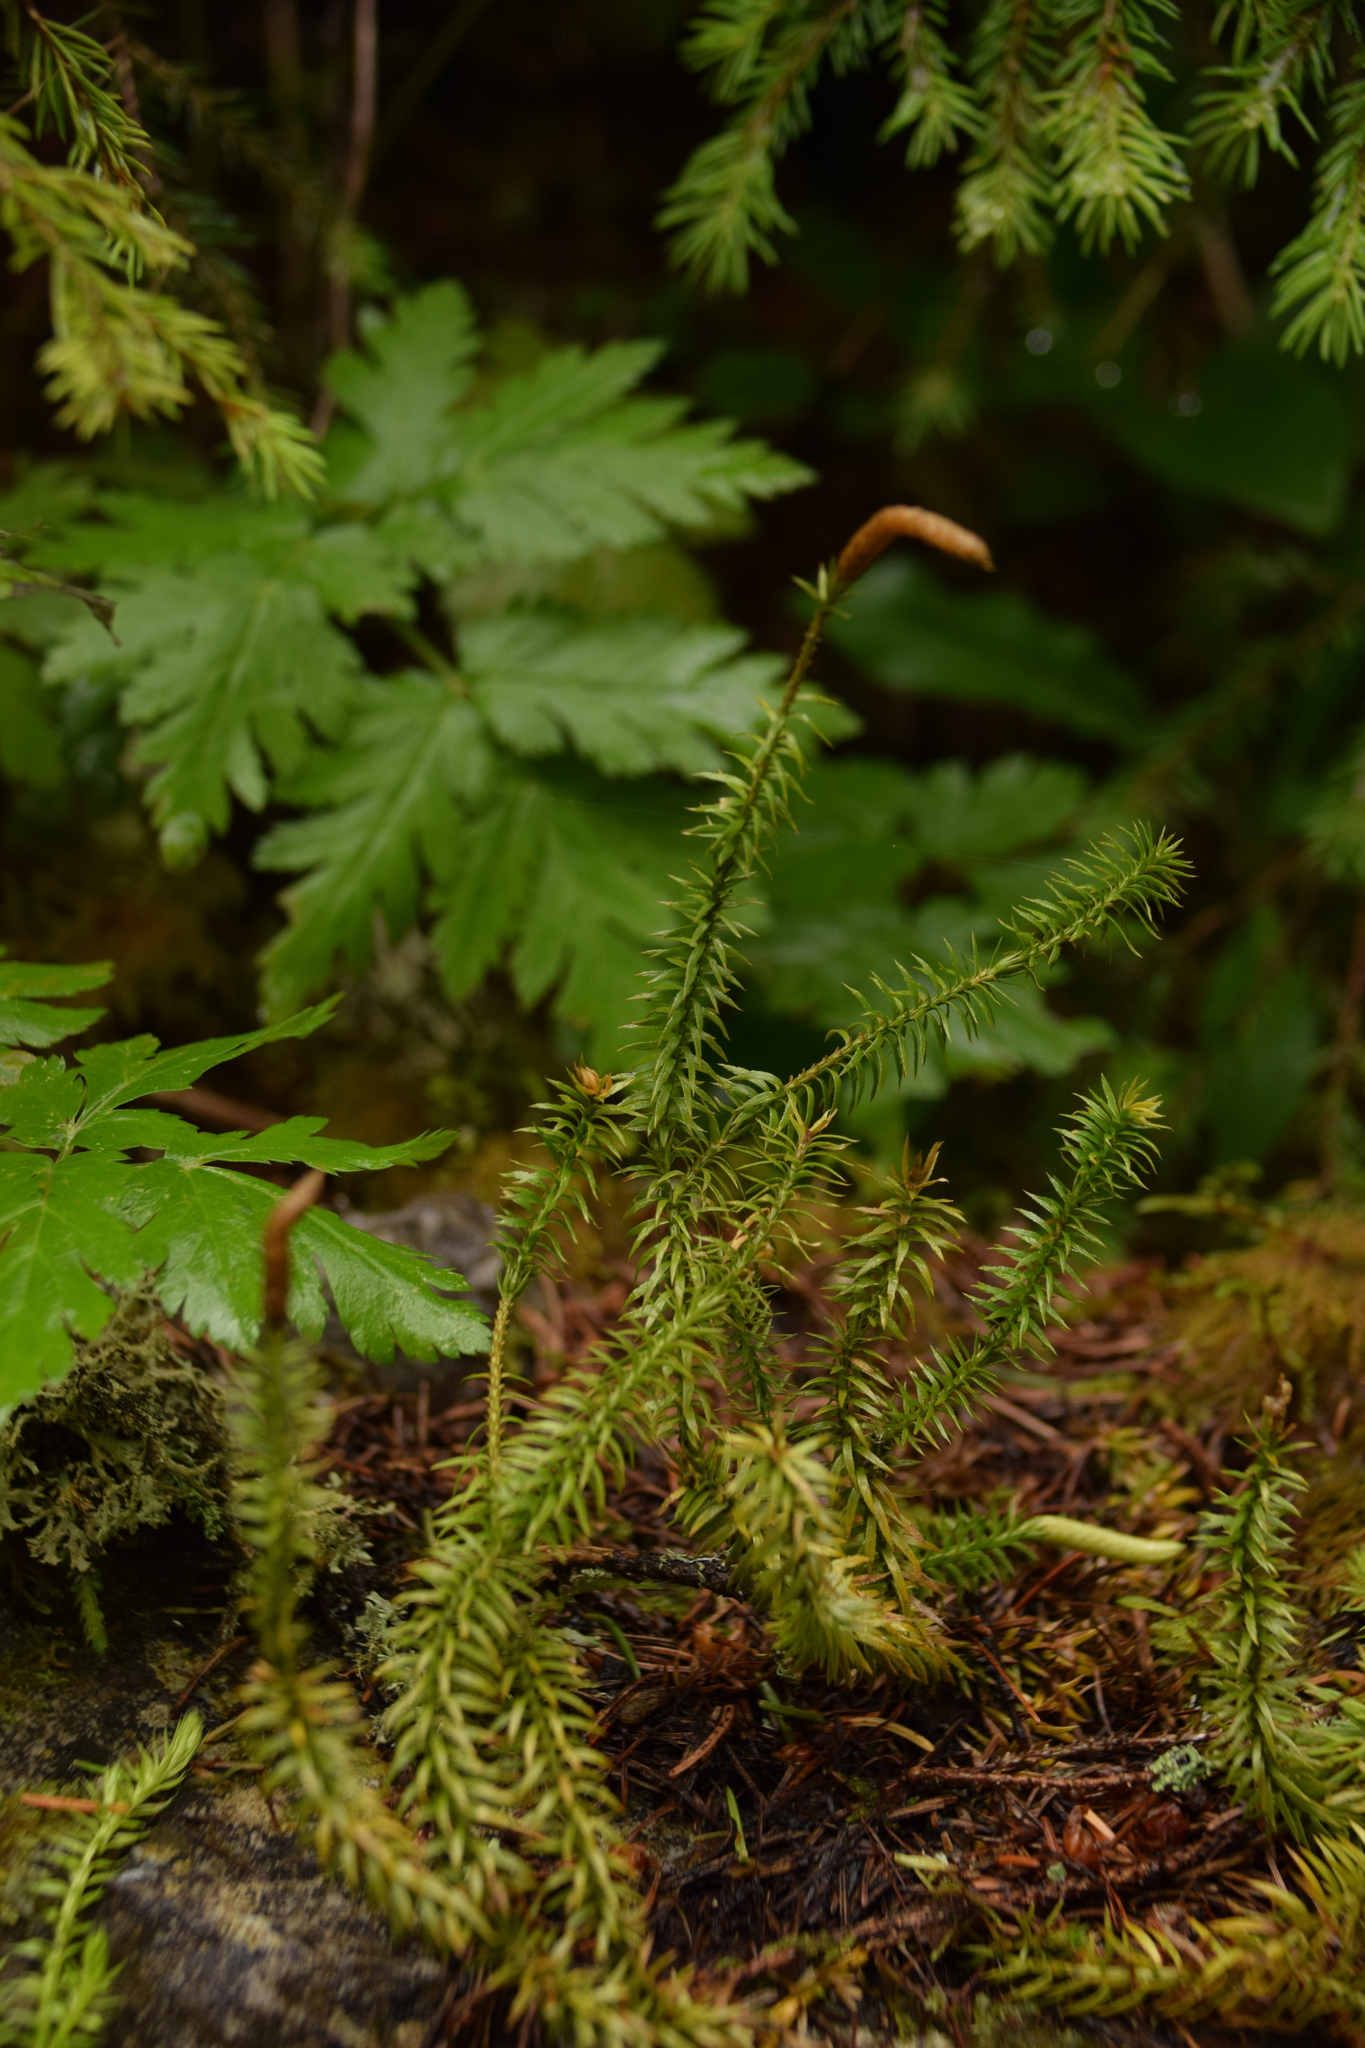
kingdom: Plantae
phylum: Tracheophyta
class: Lycopodiopsida
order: Lycopodiales
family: Lycopodiaceae
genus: Spinulum
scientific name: Spinulum annotinum
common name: Interrupted club-moss
